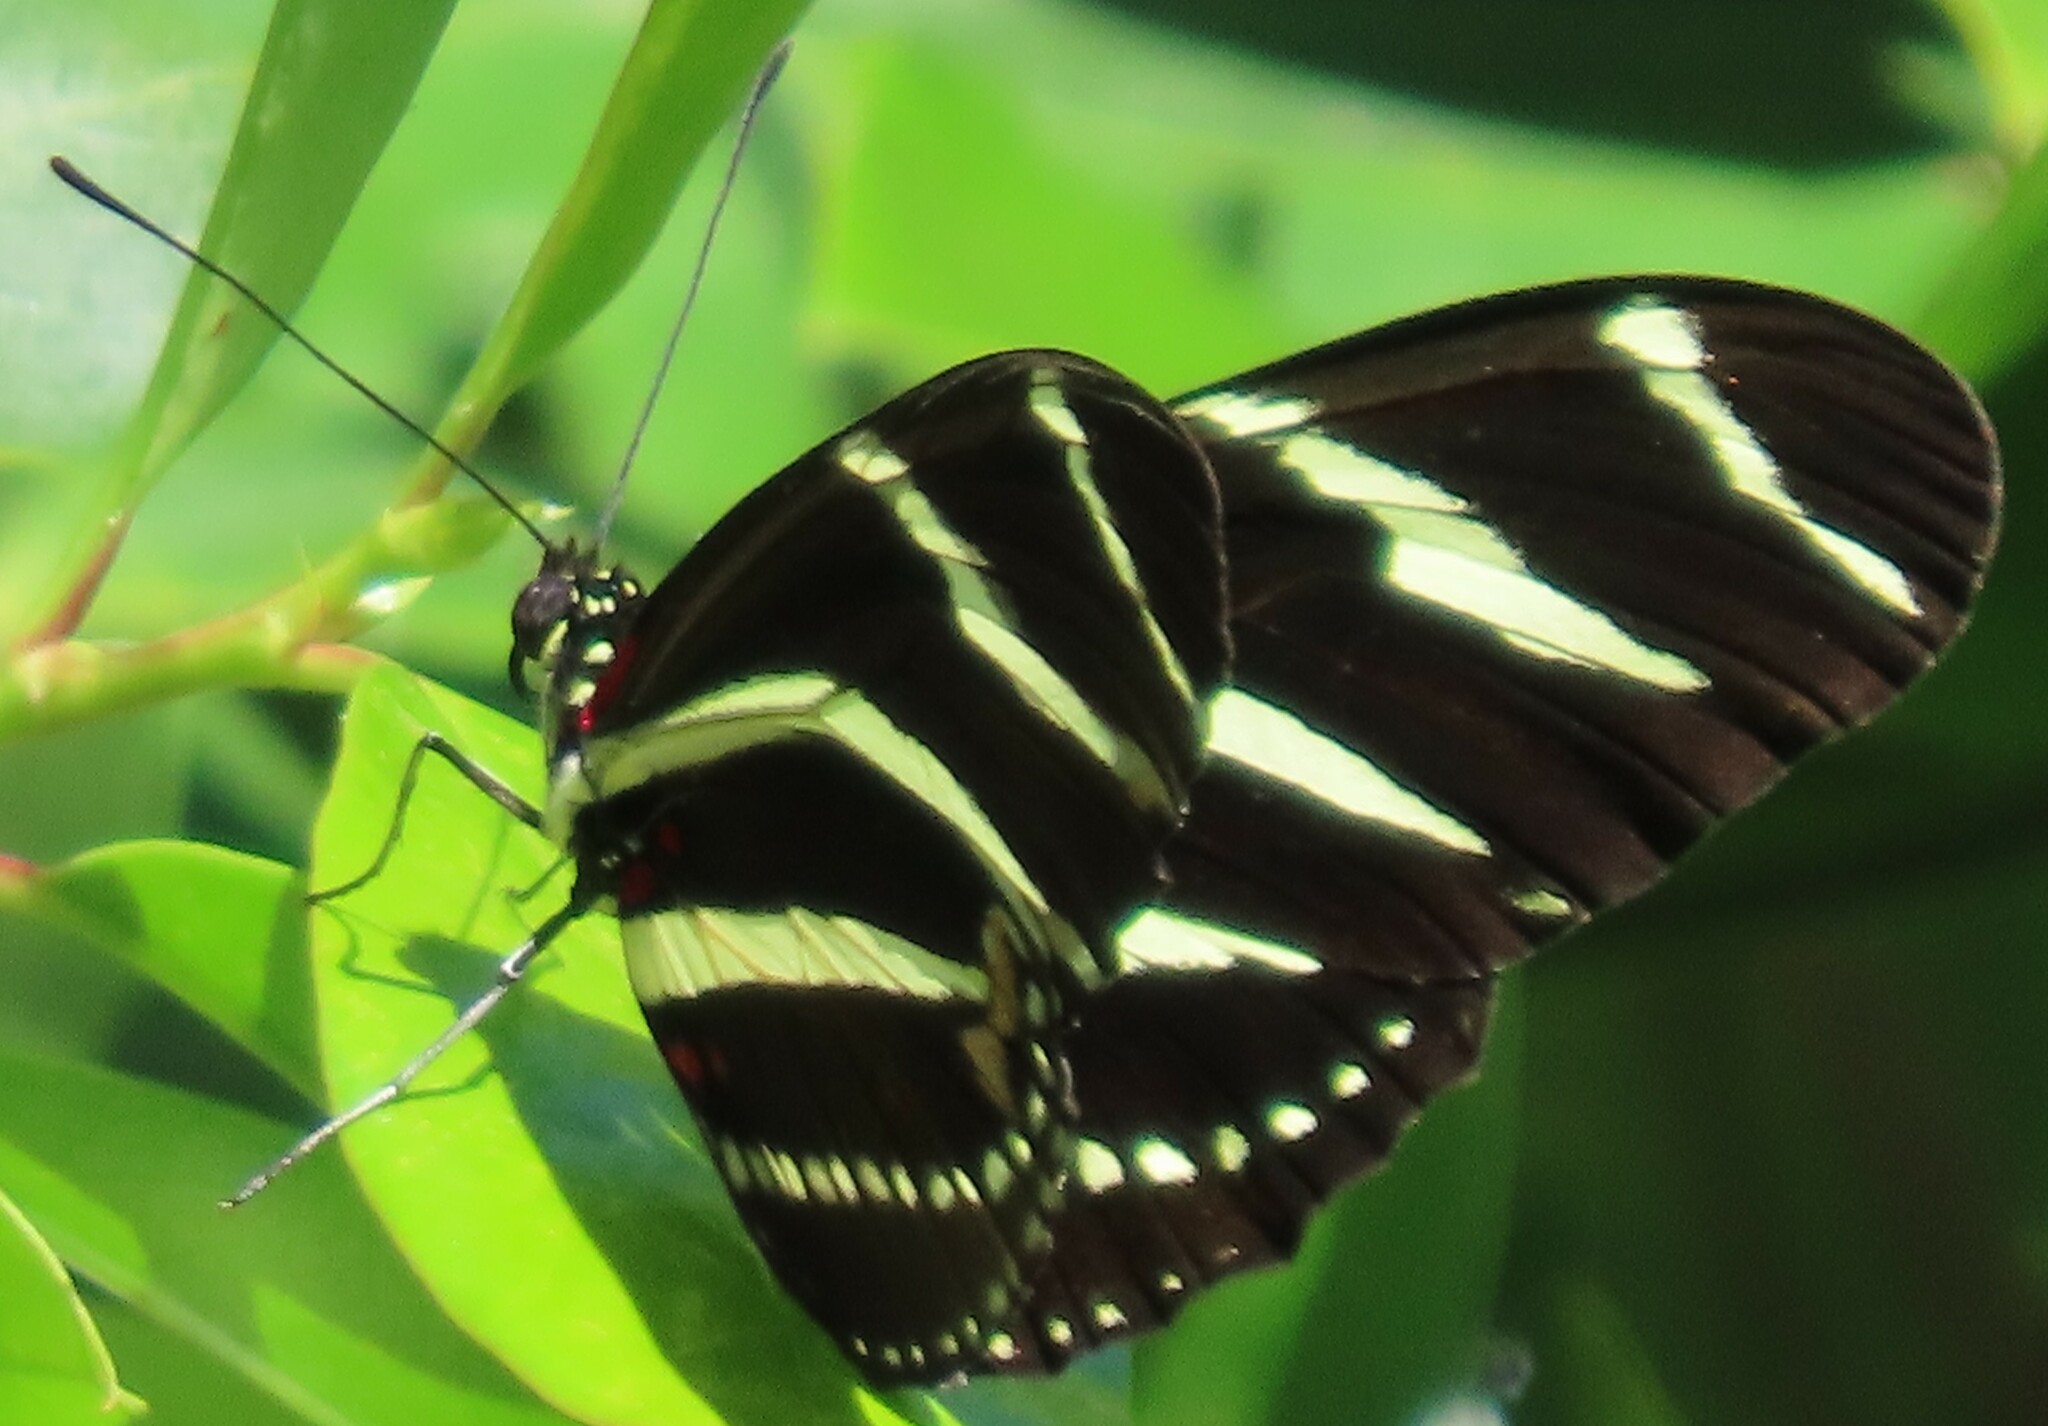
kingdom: Animalia
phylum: Arthropoda
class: Insecta
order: Lepidoptera
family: Nymphalidae
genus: Heliconius
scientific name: Heliconius charithonia
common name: Zebra long wing
